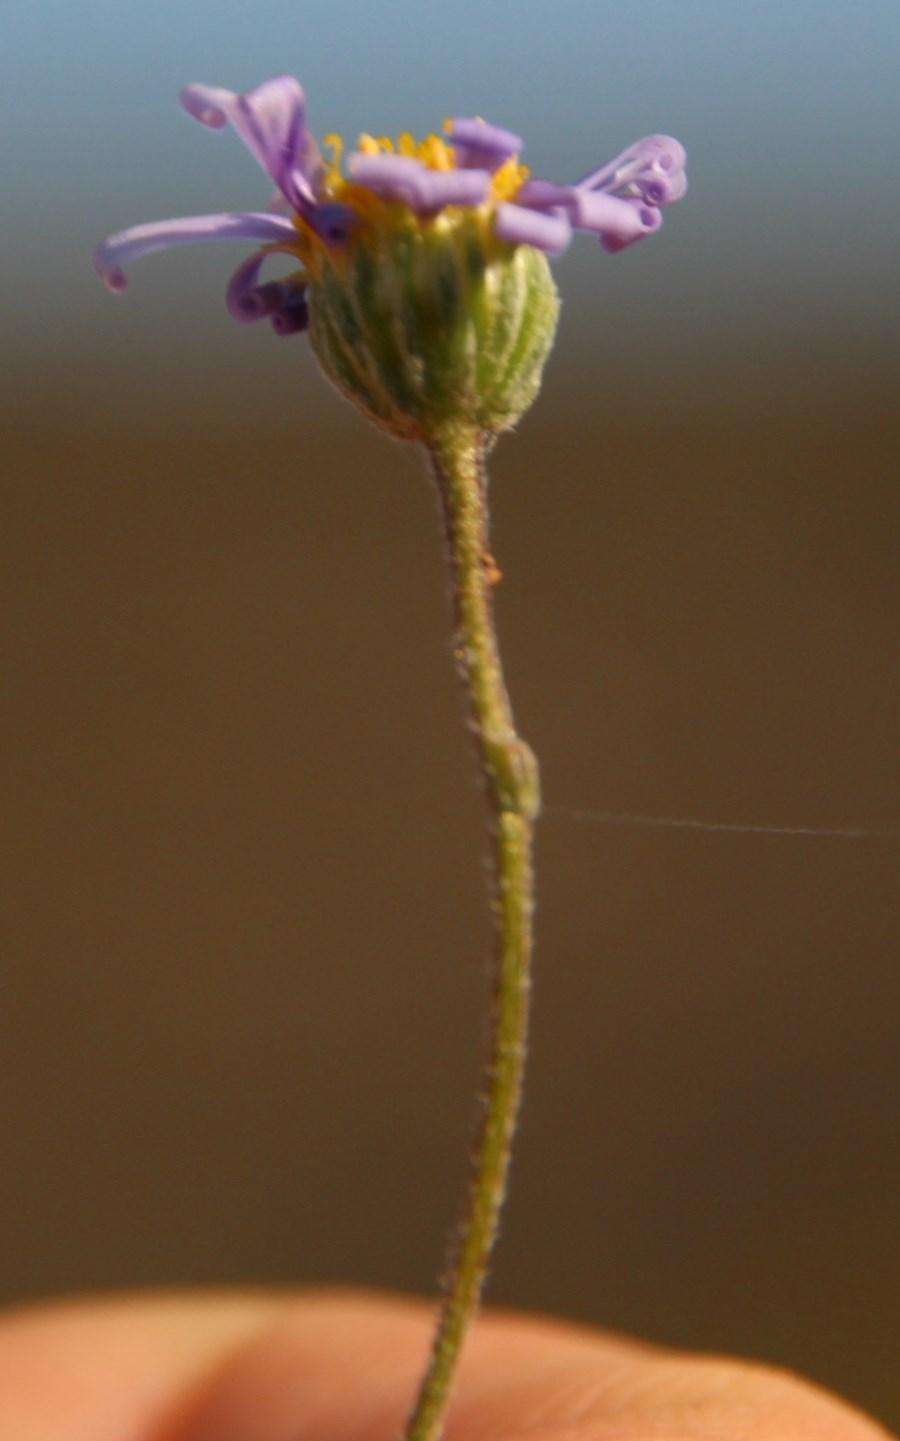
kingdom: Plantae
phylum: Tracheophyta
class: Magnoliopsida
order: Asterales
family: Asteraceae
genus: Felicia
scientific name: Felicia muricata
